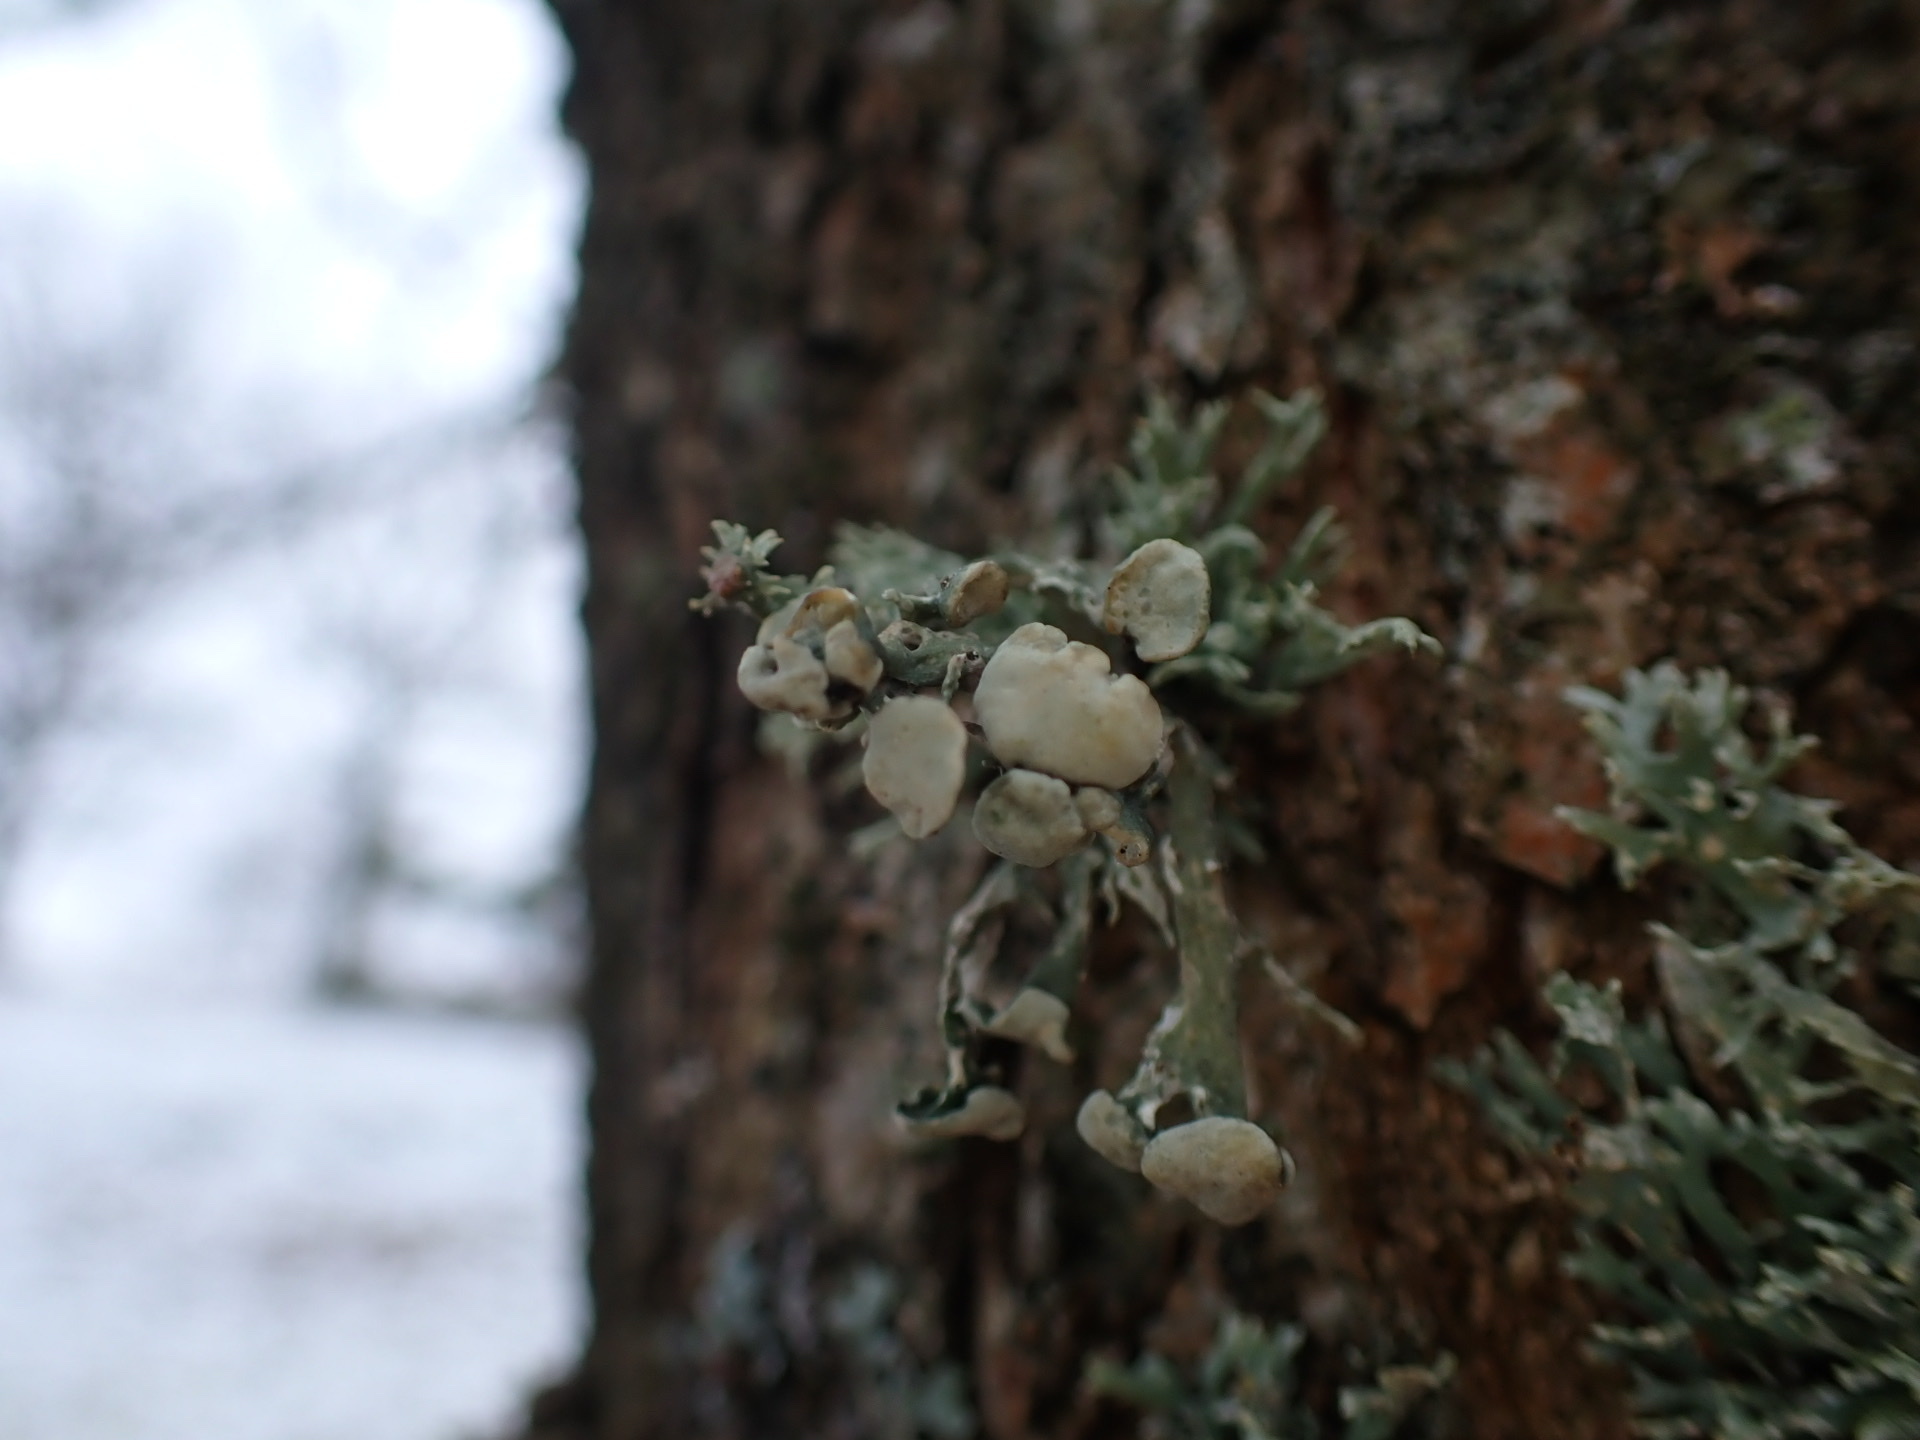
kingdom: Fungi
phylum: Ascomycota
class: Lecanoromycetes
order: Lecanorales
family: Ramalinaceae
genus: Ramalina
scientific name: Ramalina fastigiata
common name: Dotted ribbon lichen
